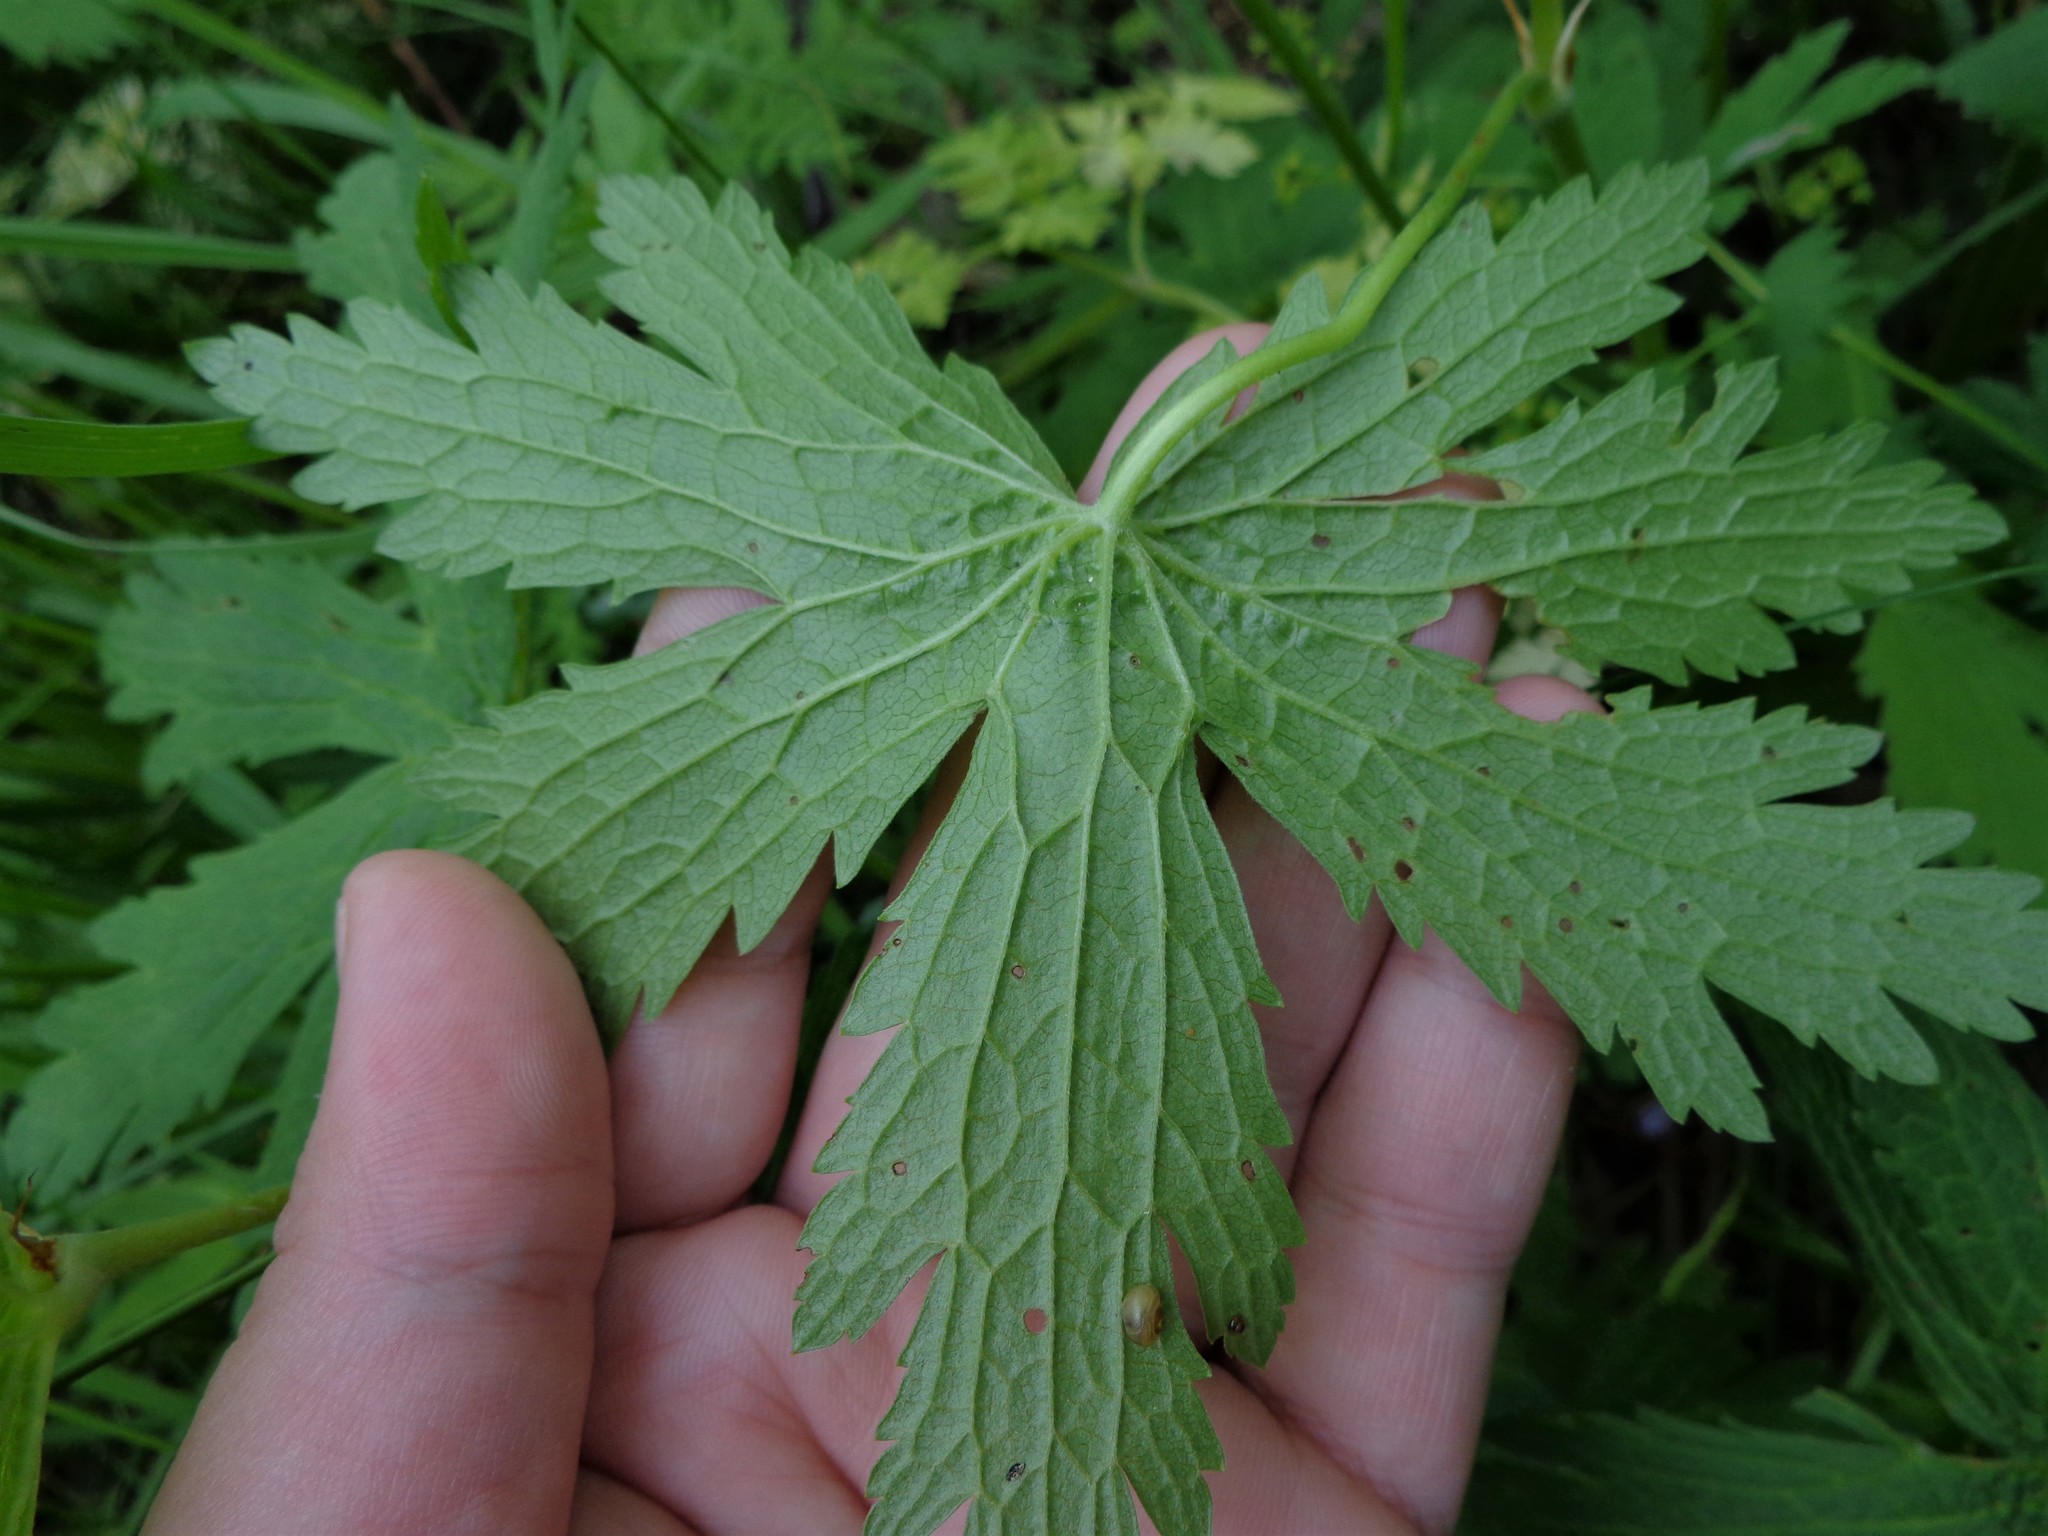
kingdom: Plantae
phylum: Tracheophyta
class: Magnoliopsida
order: Geraniales
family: Geraniaceae
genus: Geranium
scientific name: Geranium sylvaticum
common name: Wood crane's-bill
